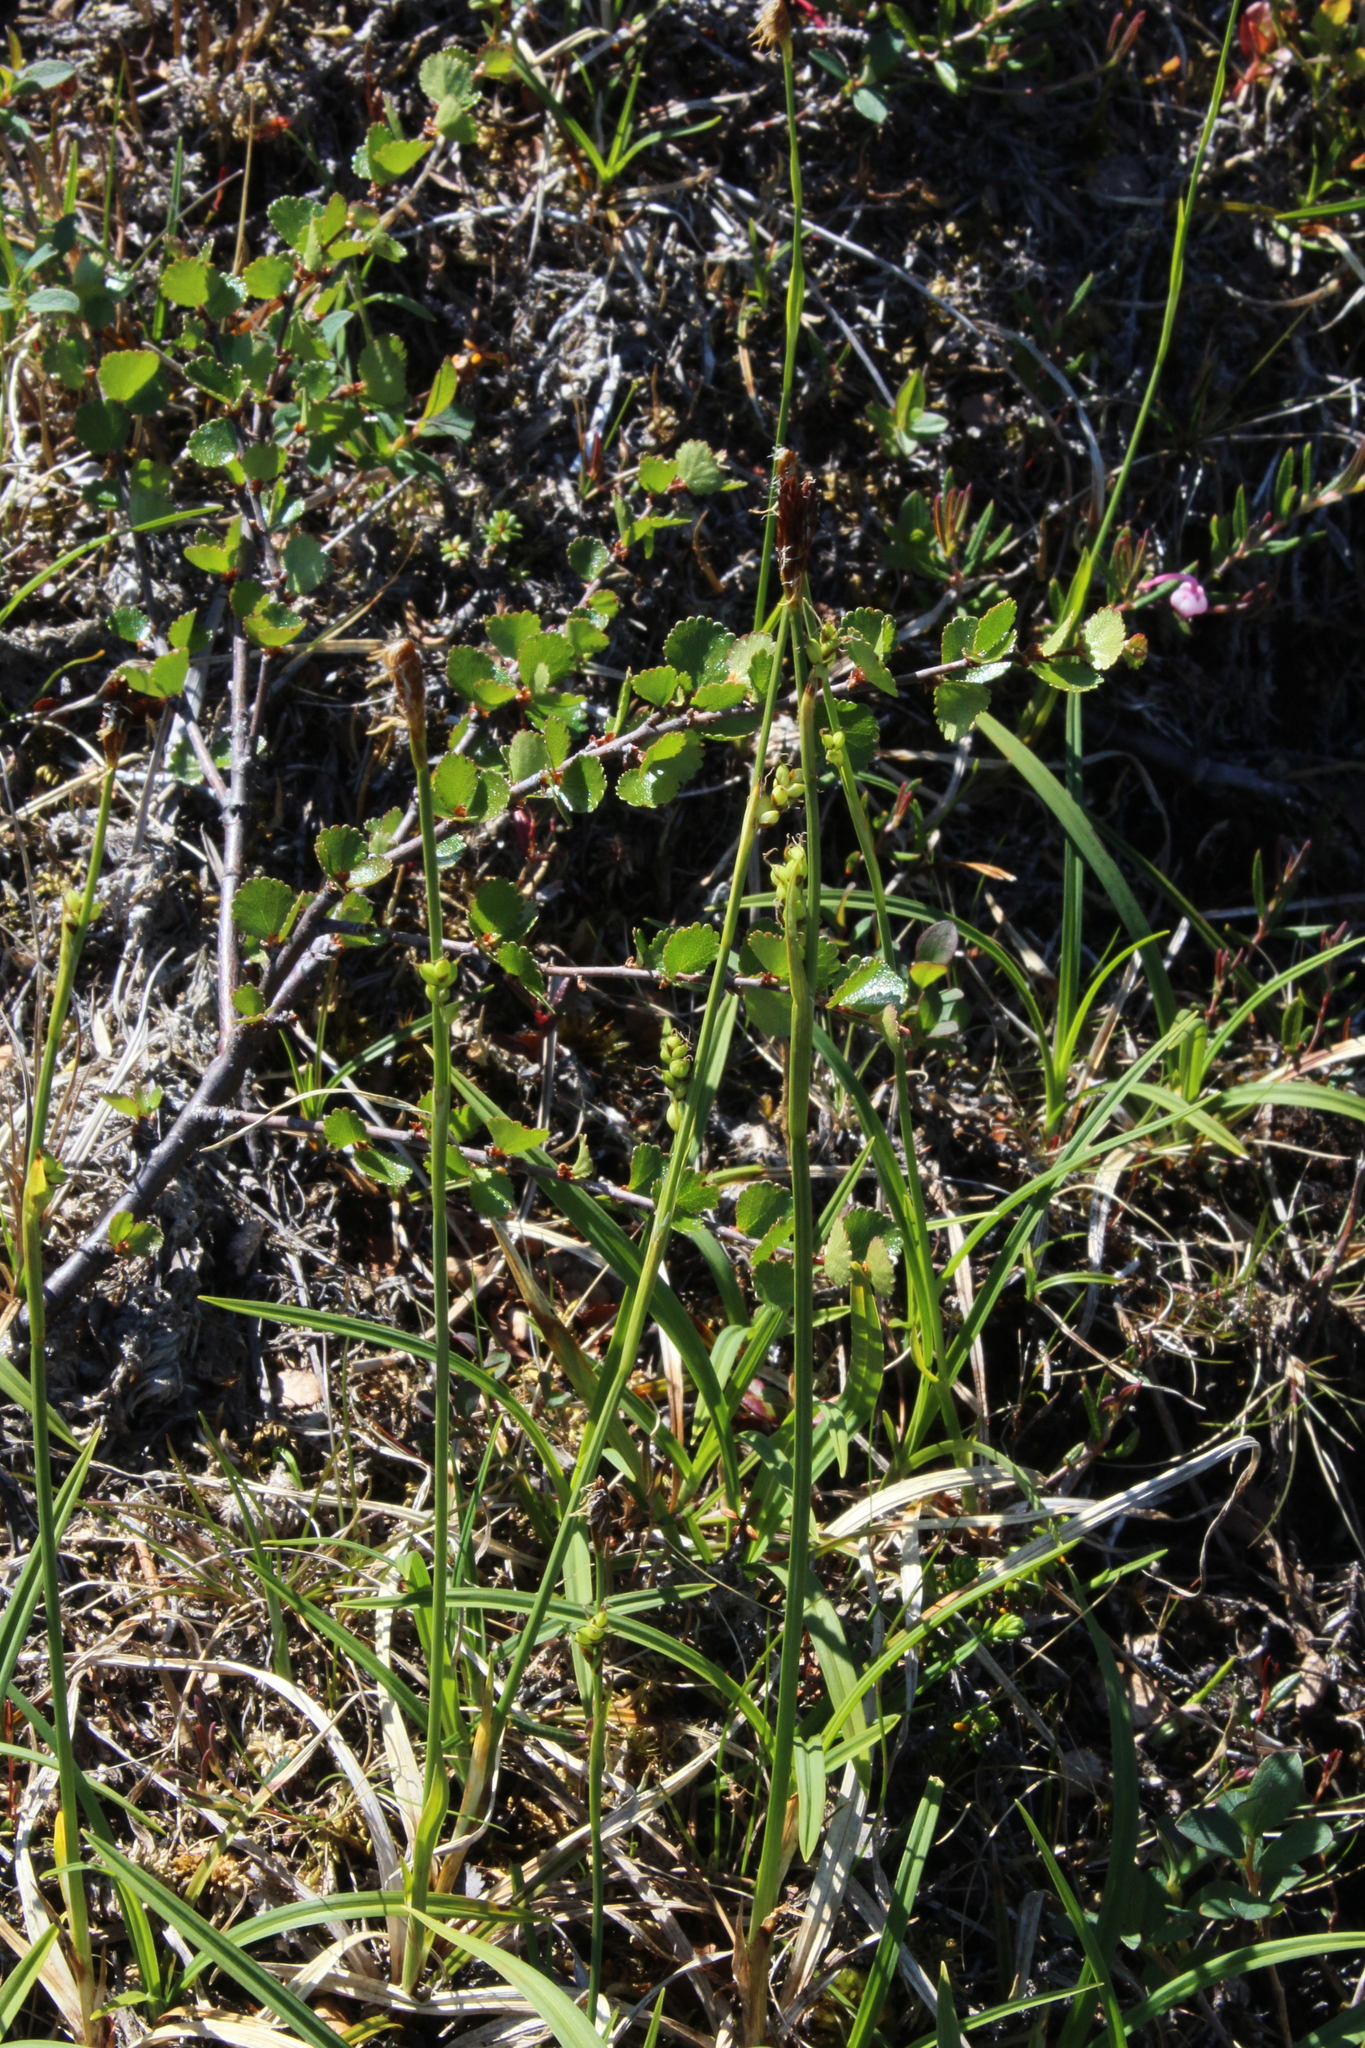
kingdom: Plantae
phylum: Tracheophyta
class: Liliopsida
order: Poales
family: Cyperaceae
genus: Carex
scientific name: Carex vaginata
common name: Sheathed sedge
